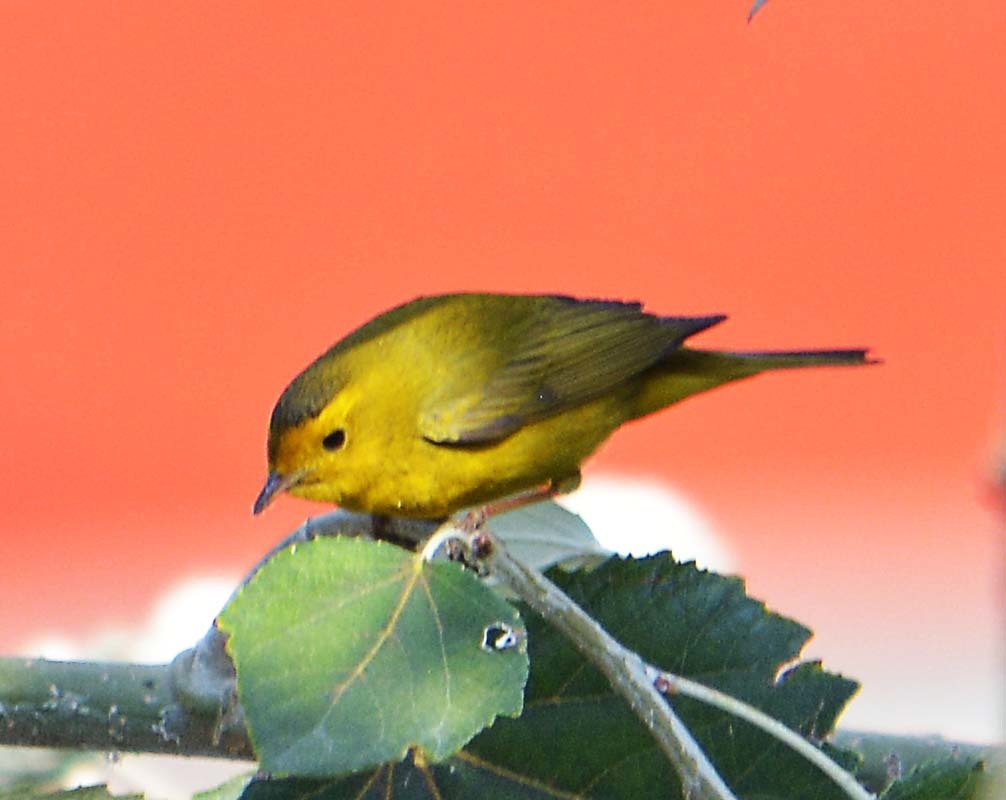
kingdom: Animalia
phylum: Chordata
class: Aves
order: Passeriformes
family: Parulidae
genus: Cardellina
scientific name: Cardellina pusilla
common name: Wilson's warbler
